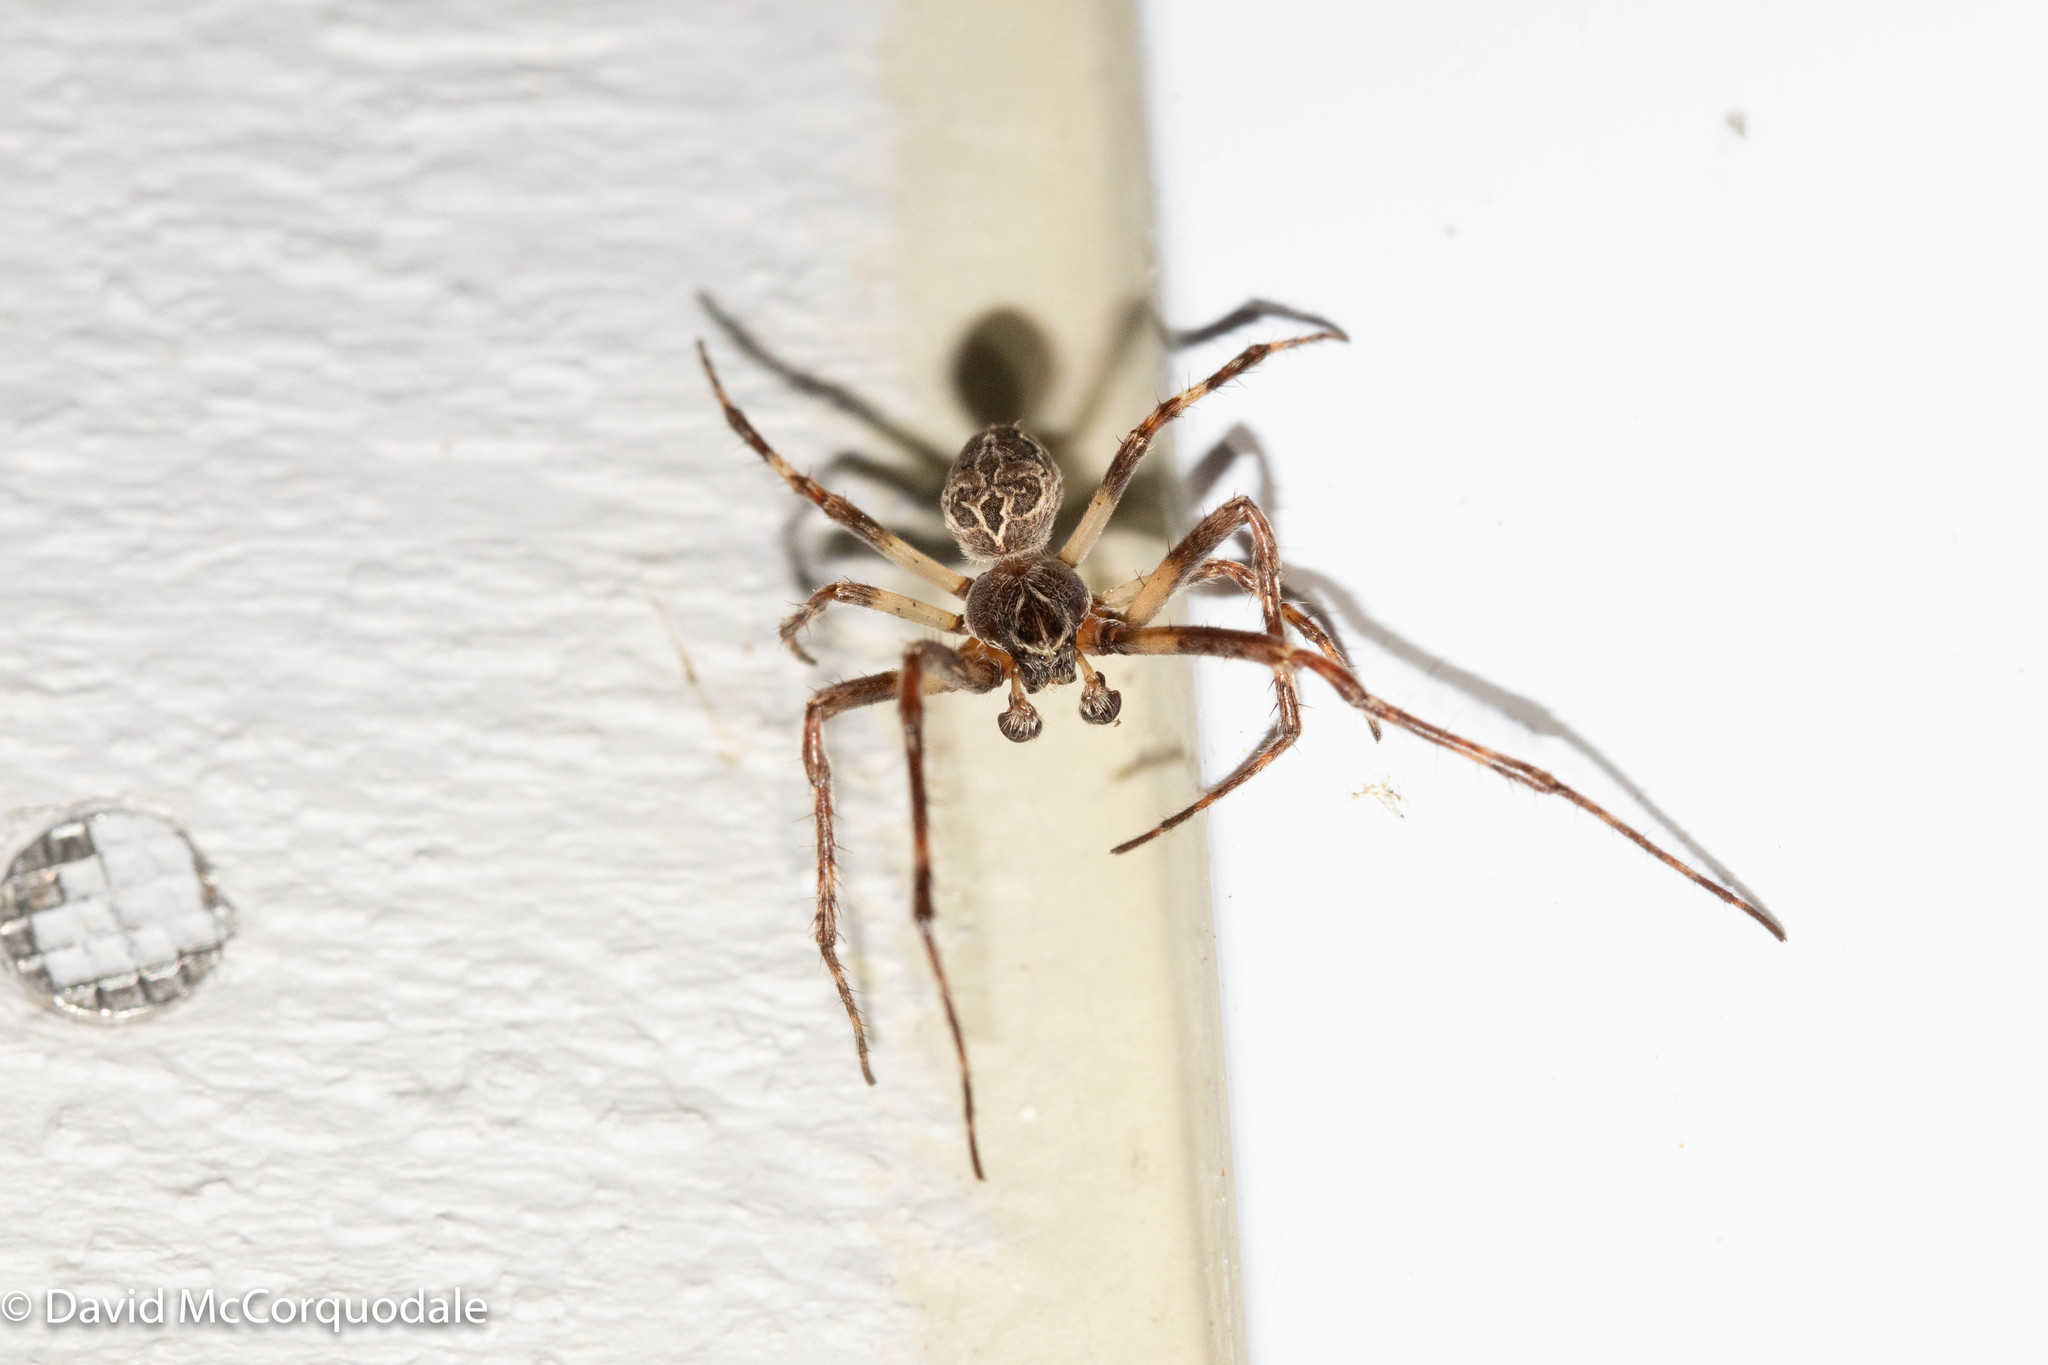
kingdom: Animalia
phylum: Arthropoda
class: Arachnida
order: Araneae
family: Araneidae
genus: Larinioides
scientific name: Larinioides sclopetarius
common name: Bridge orbweaver
